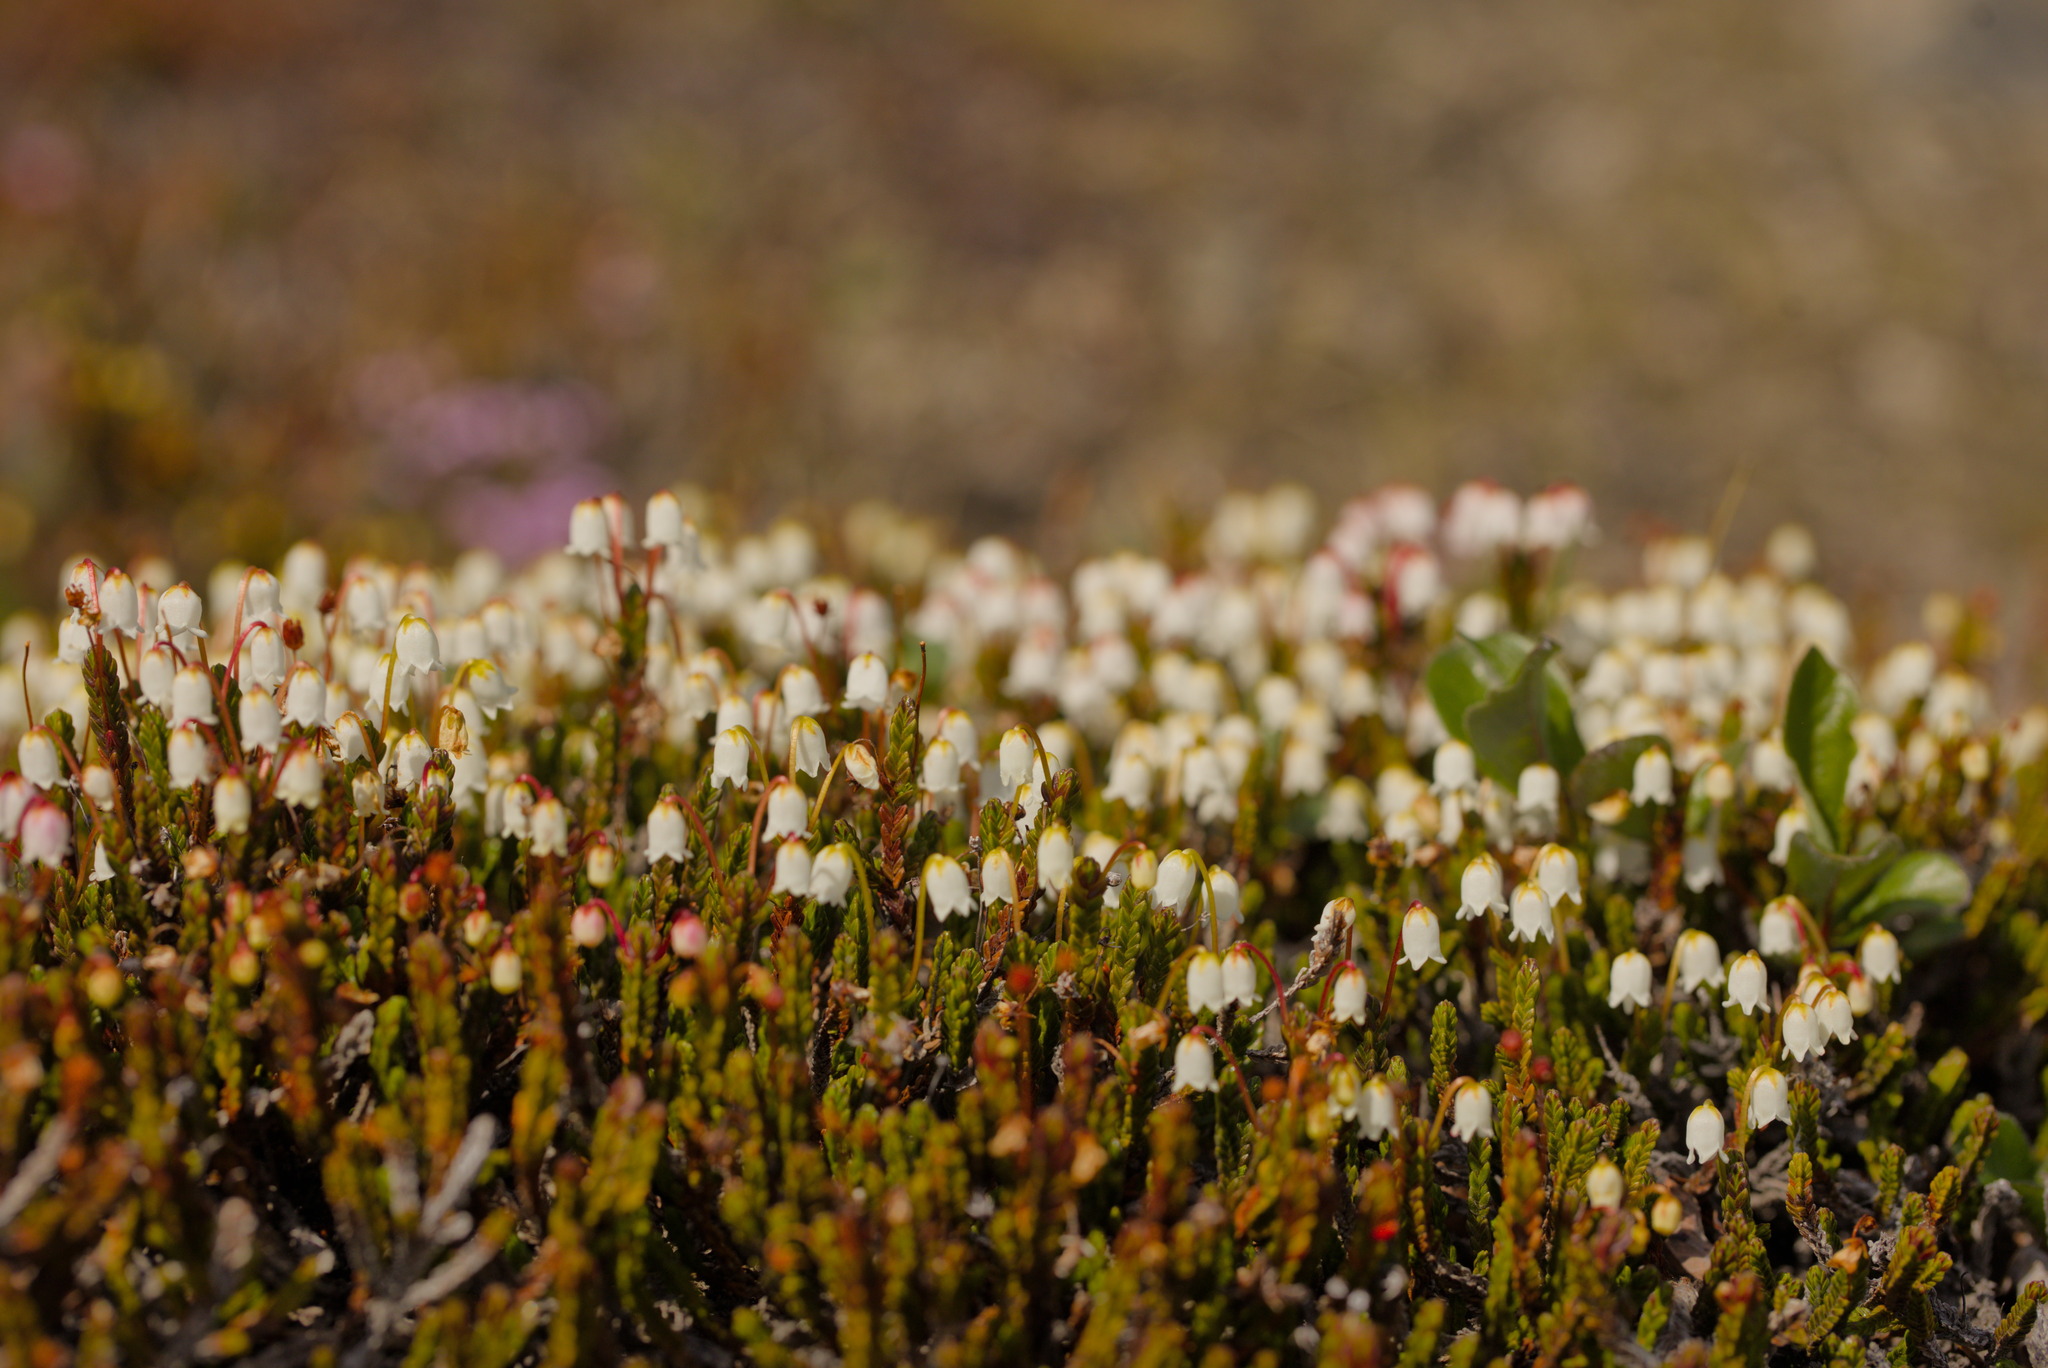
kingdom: Plantae
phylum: Tracheophyta
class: Magnoliopsida
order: Ericales
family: Ericaceae
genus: Cassiope
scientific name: Cassiope tetragona
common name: Arctic bell heather
